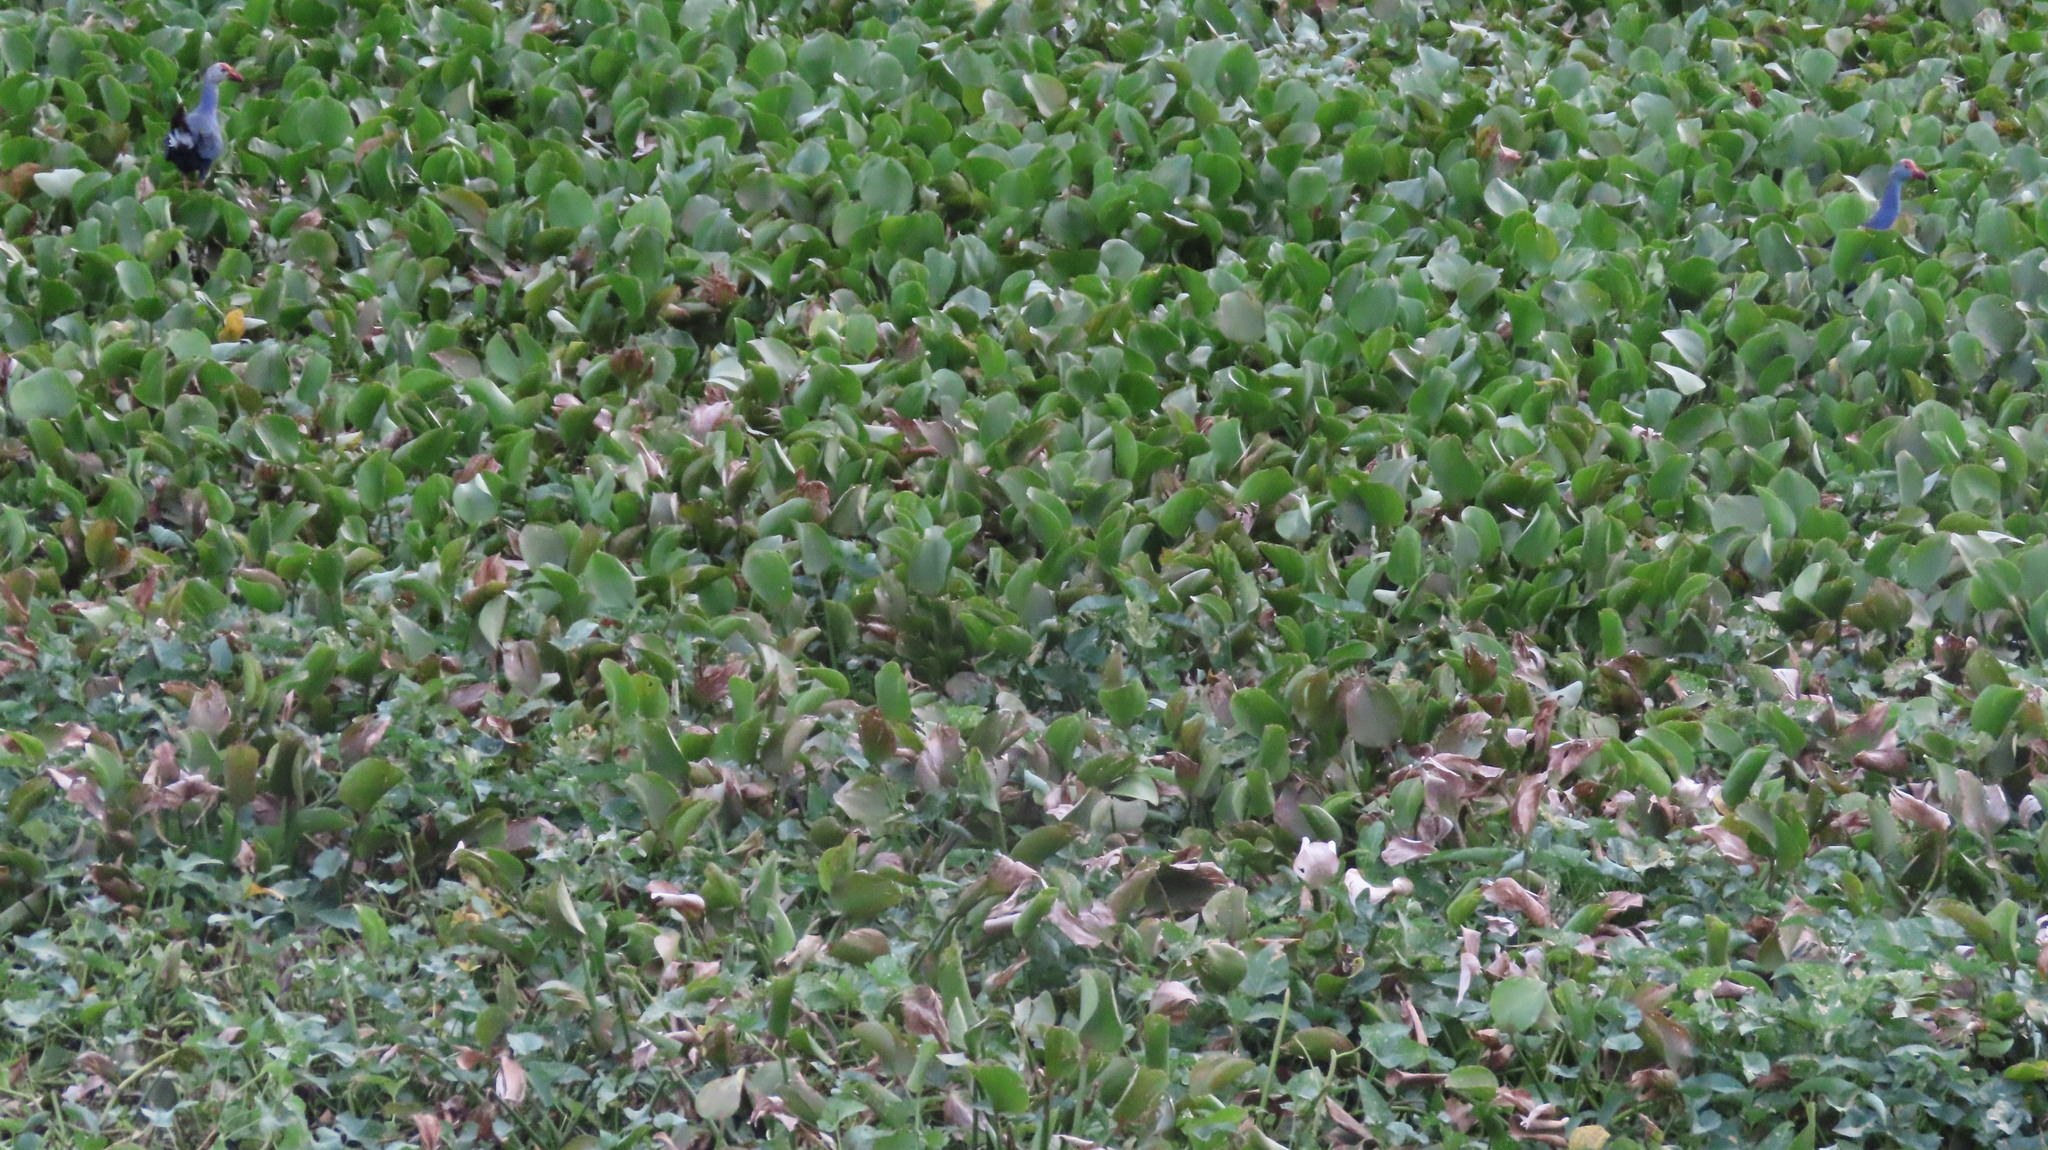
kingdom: Animalia
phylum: Chordata
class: Aves
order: Gruiformes
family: Rallidae
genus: Porphyrio
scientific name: Porphyrio porphyrio
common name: Purple swamphen
